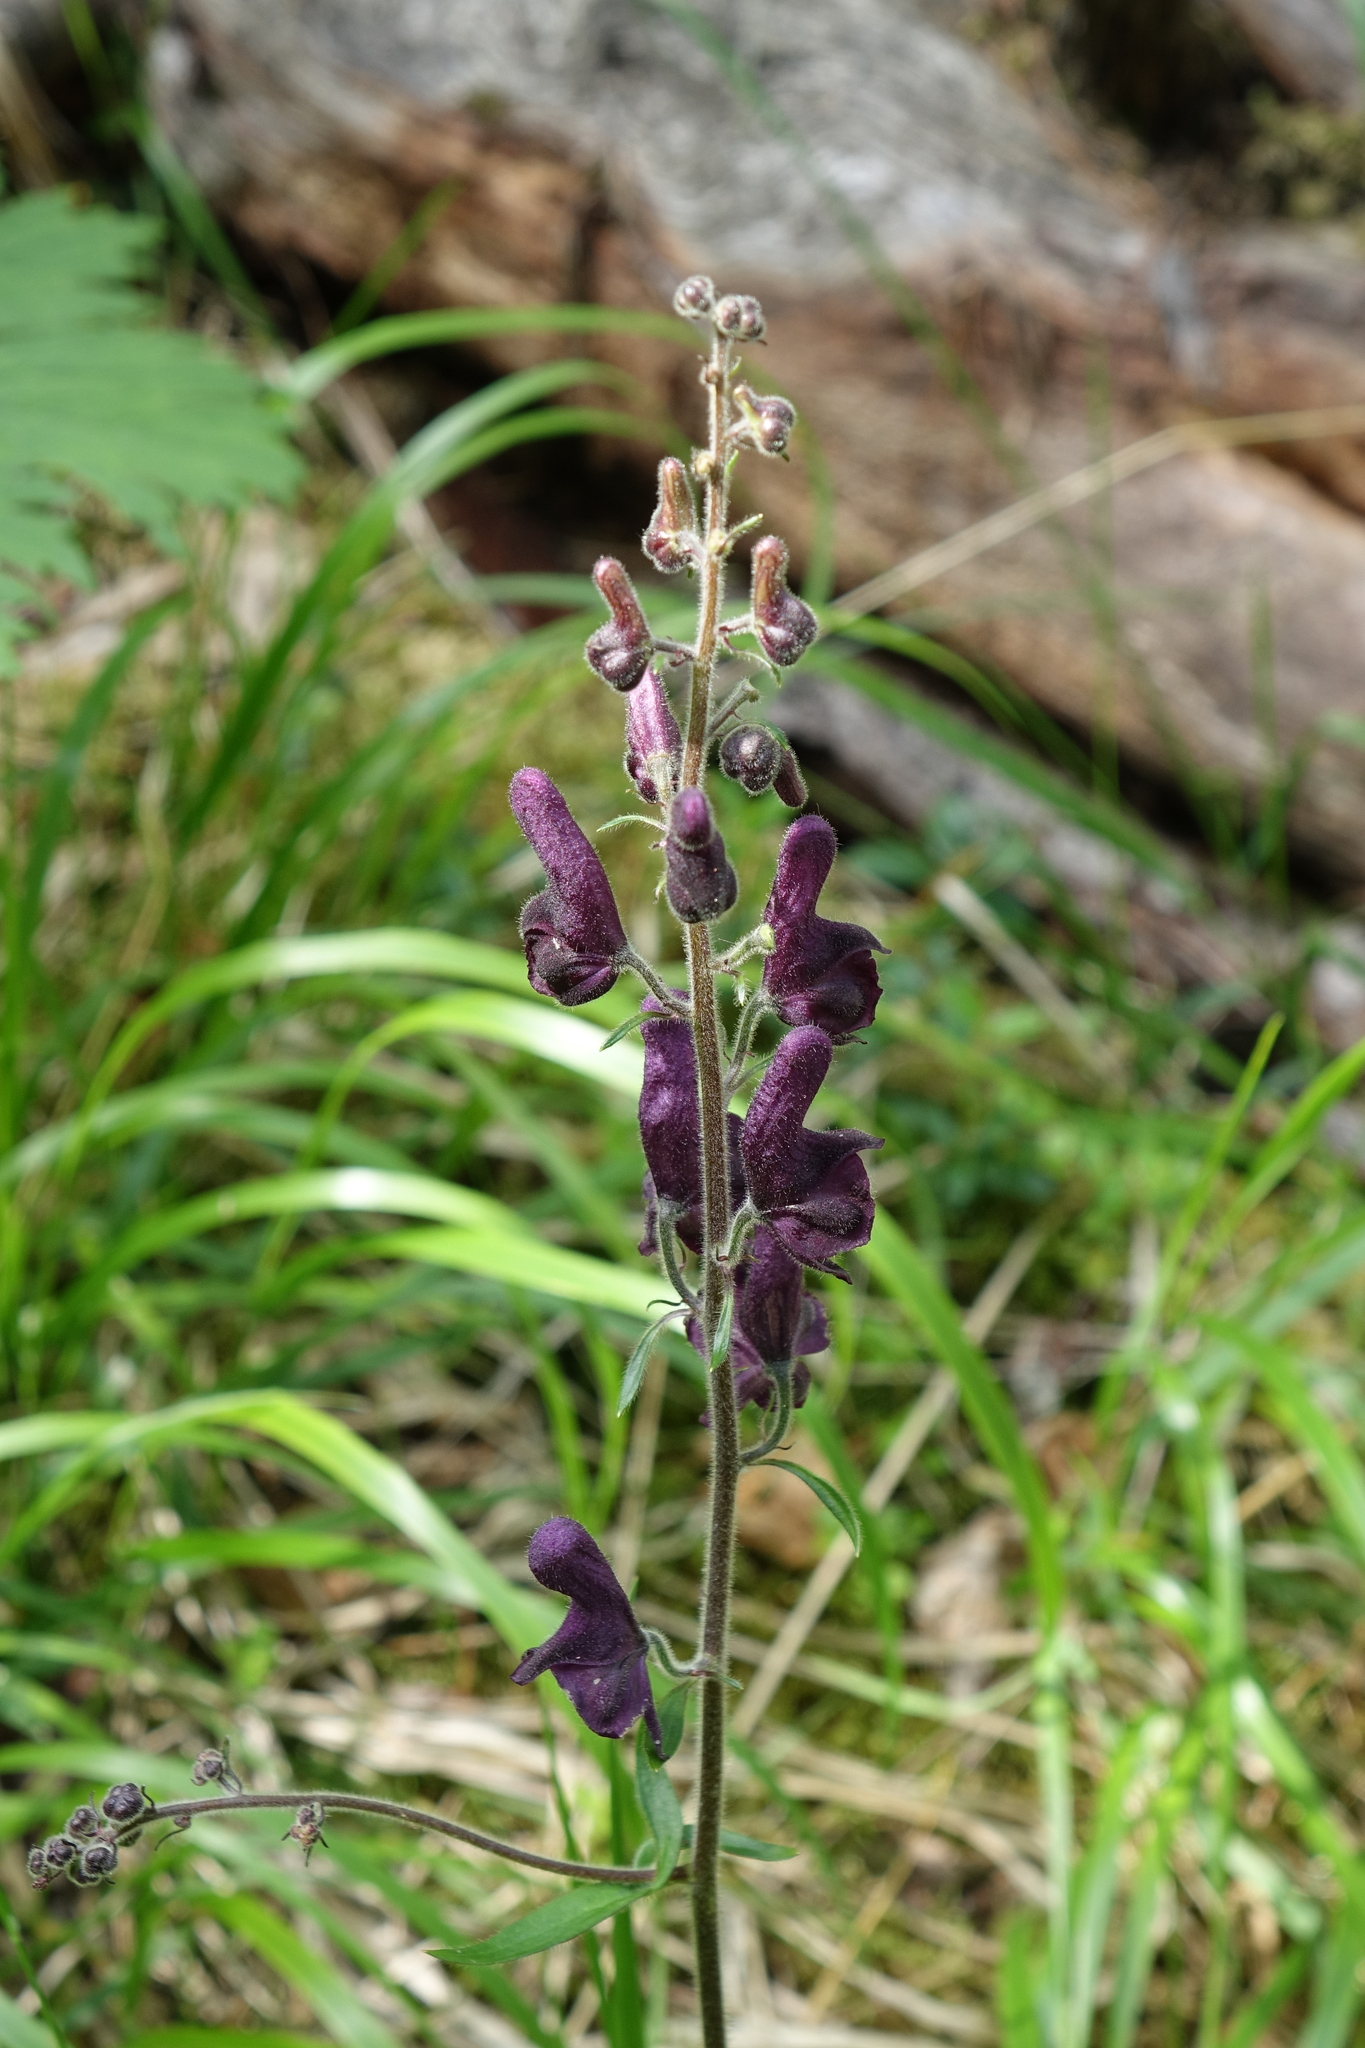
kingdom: Plantae
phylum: Tracheophyta
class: Magnoliopsida
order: Ranunculales
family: Ranunculaceae
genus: Aconitum
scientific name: Aconitum septentrionale
